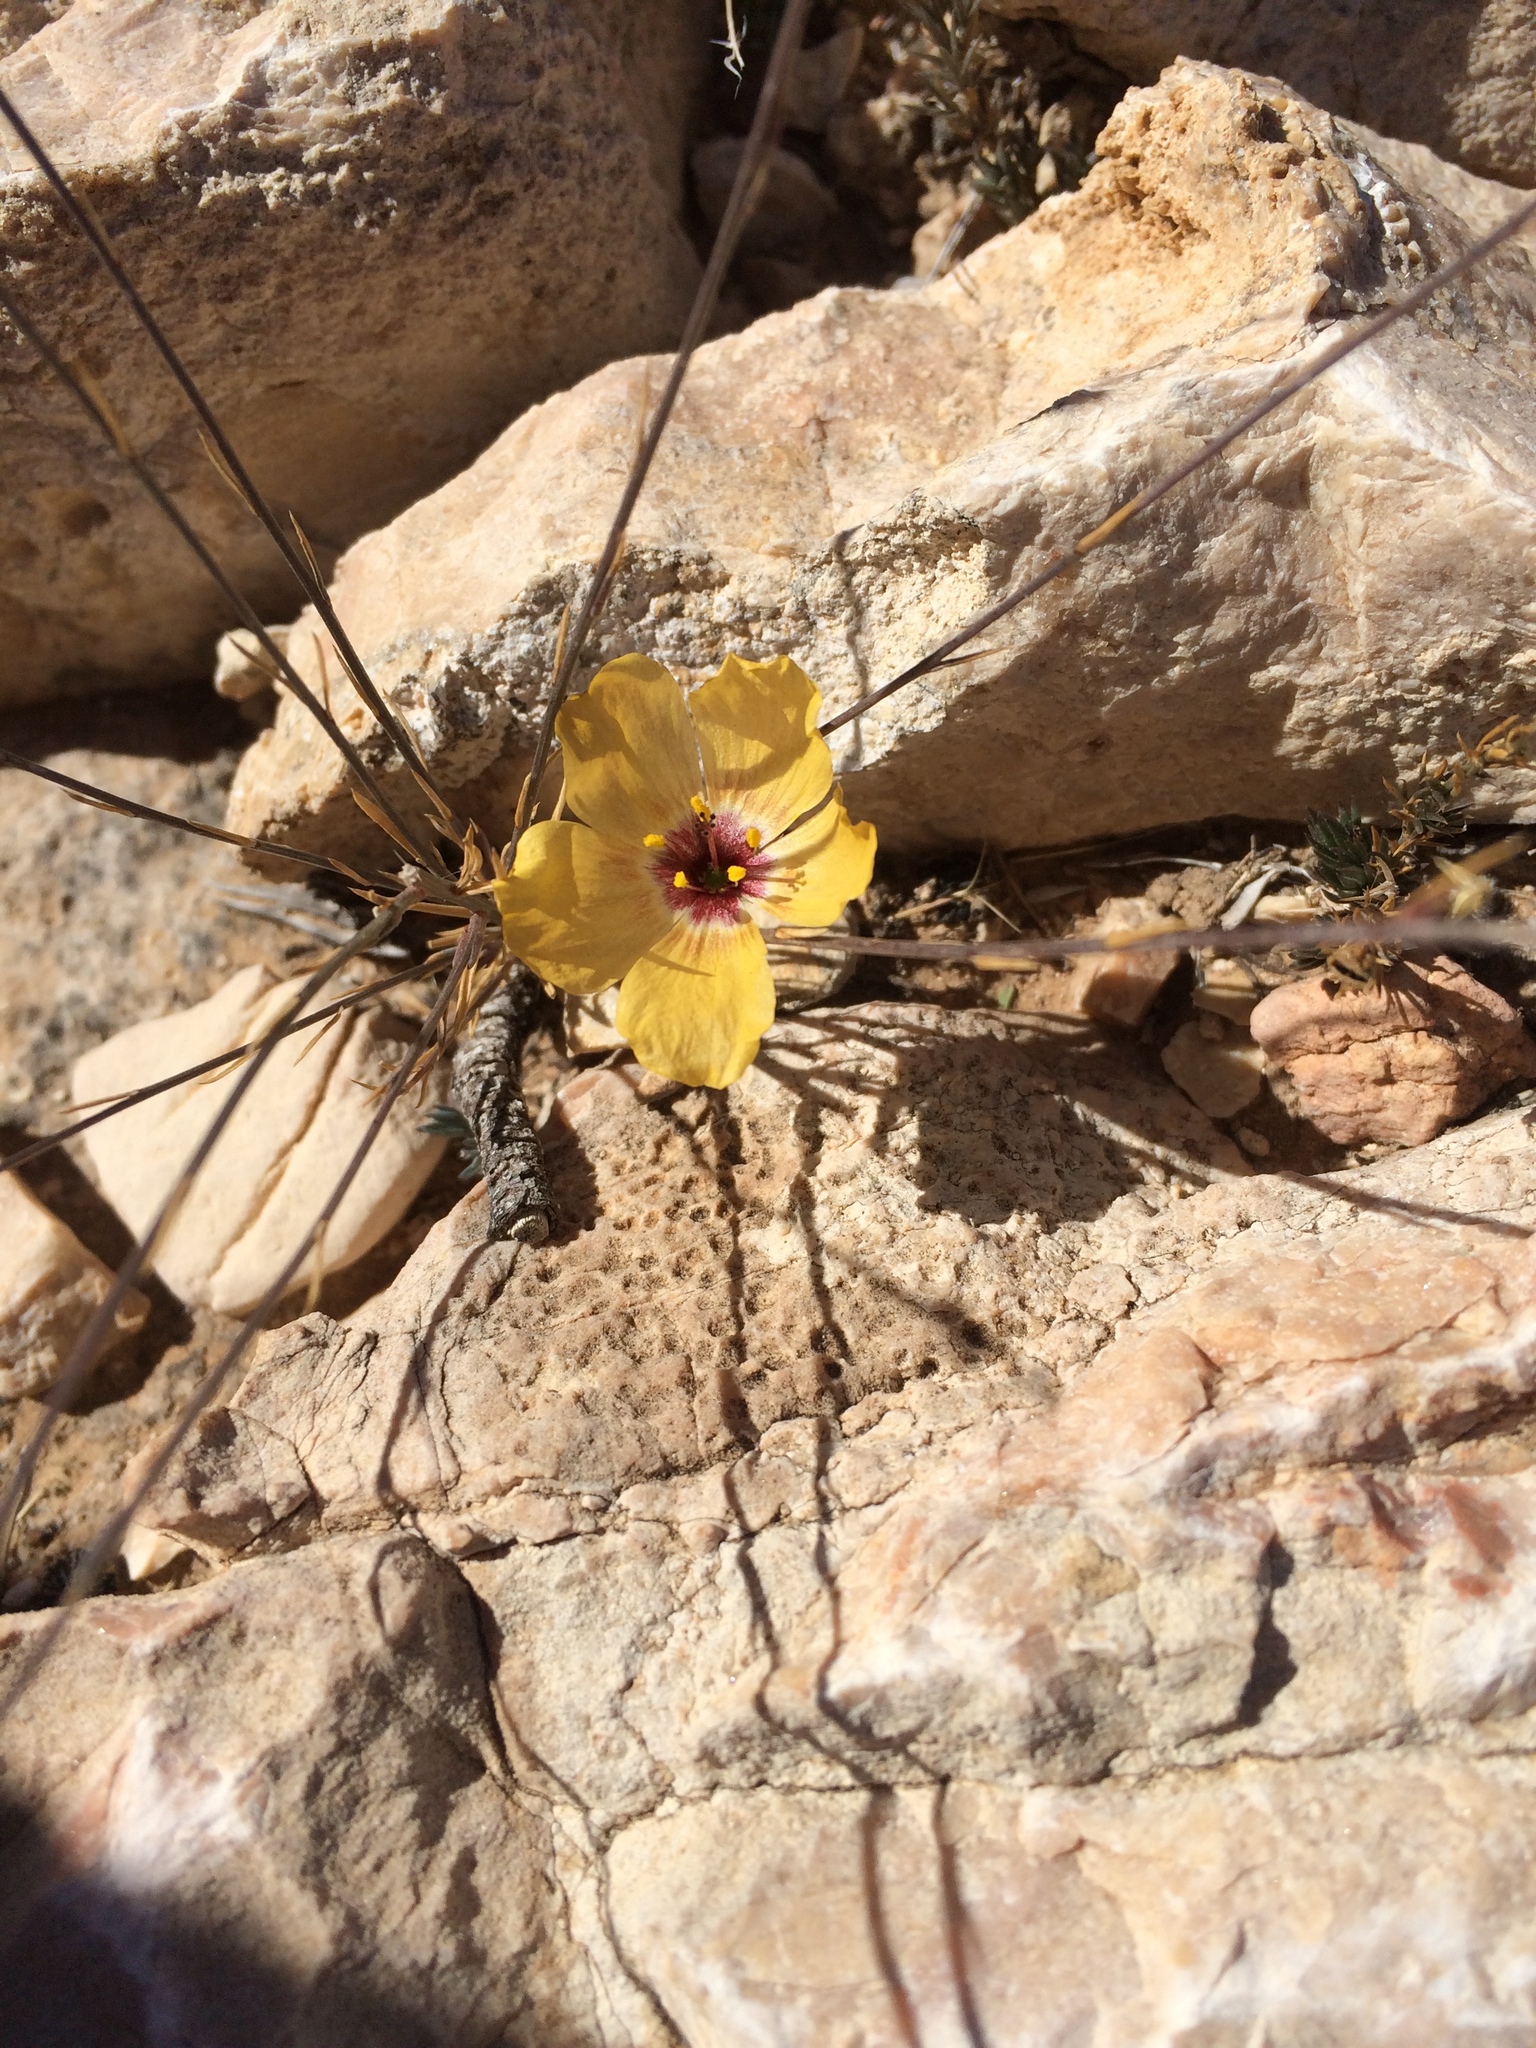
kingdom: Plantae
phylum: Tracheophyta
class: Magnoliopsida
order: Malpighiales
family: Linaceae
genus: Linum
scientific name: Linum vernale
